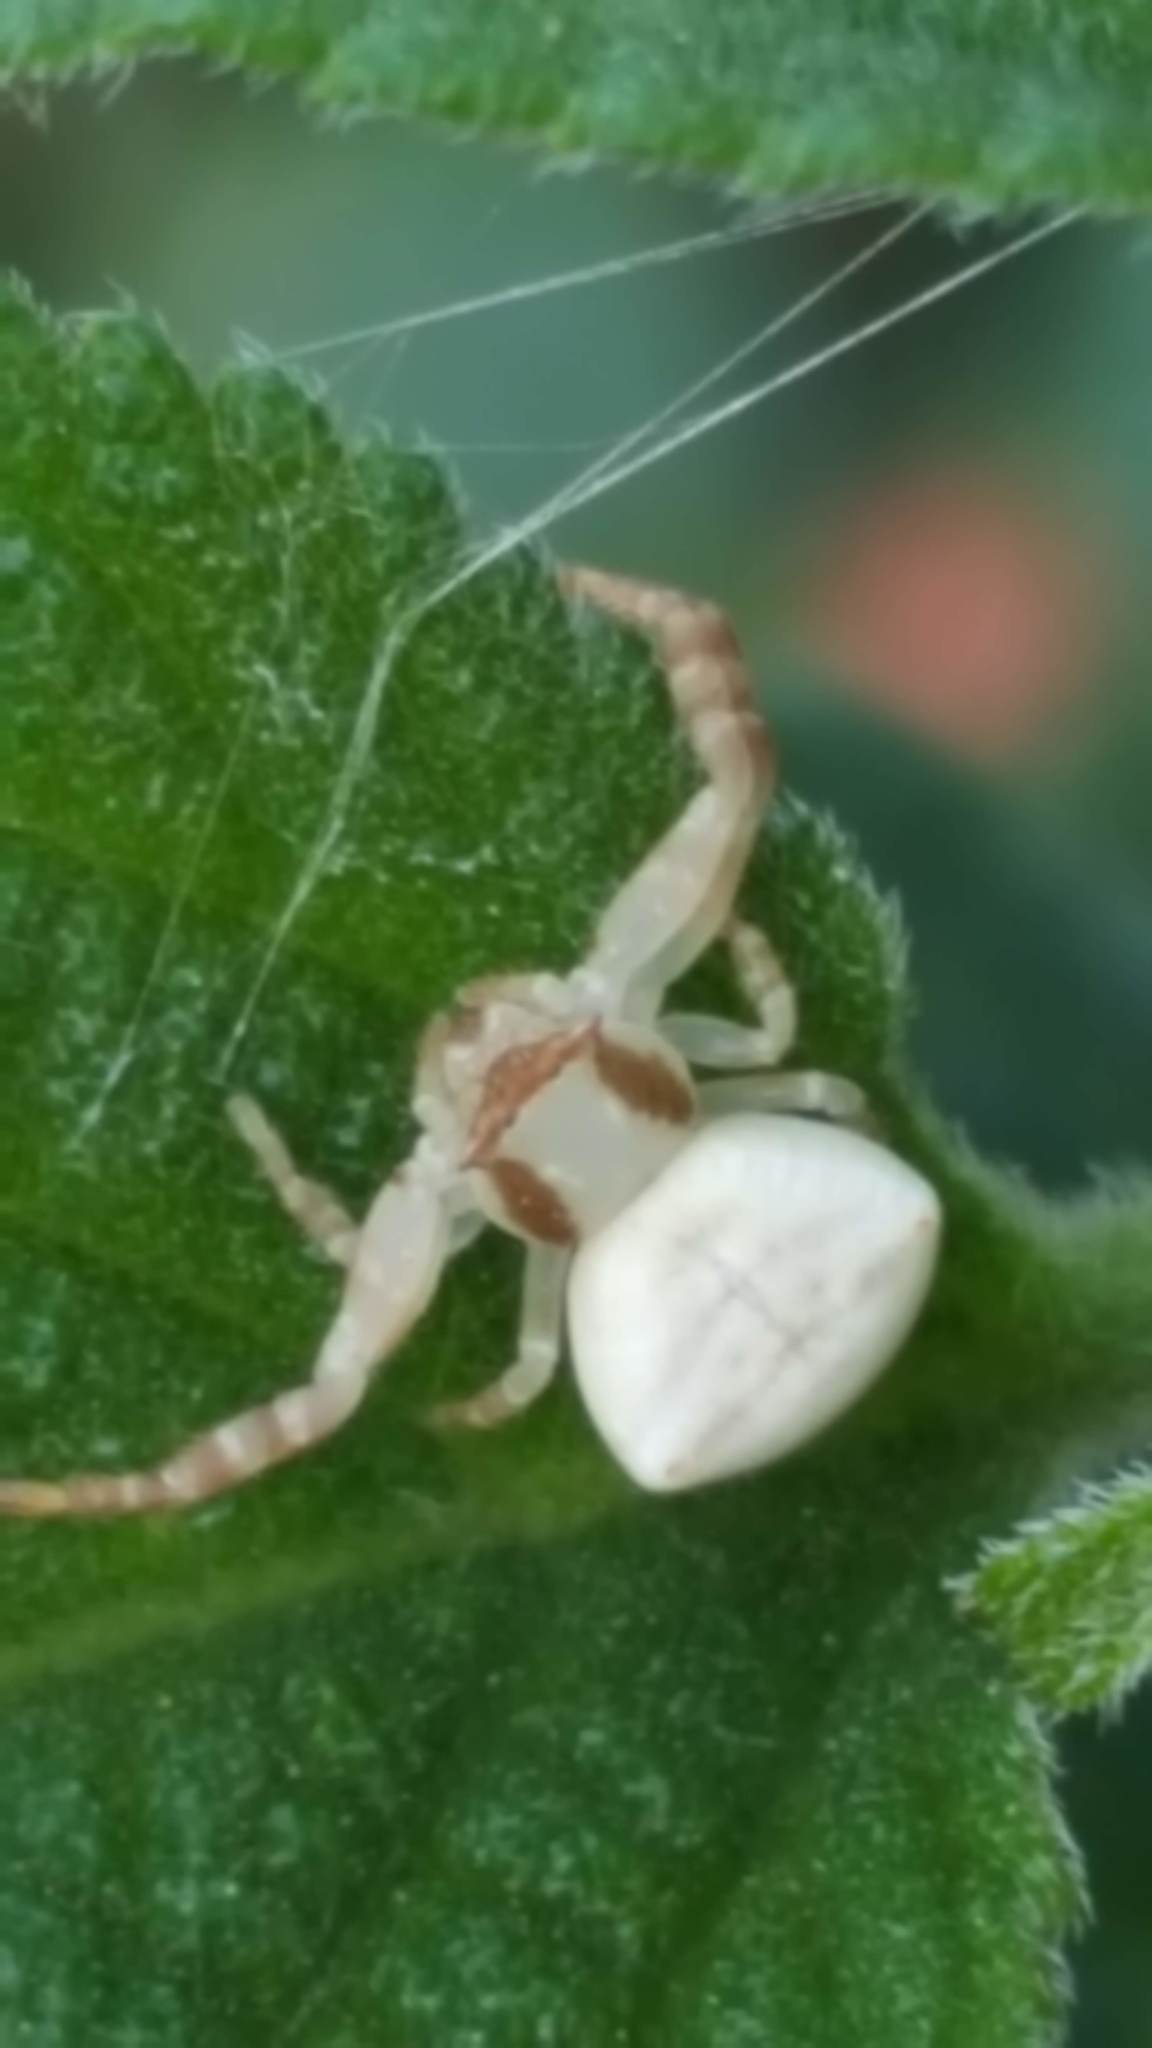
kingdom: Animalia
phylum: Arthropoda
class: Arachnida
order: Araneae
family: Thomisidae
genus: Thomisus
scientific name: Thomisus spectabilis
